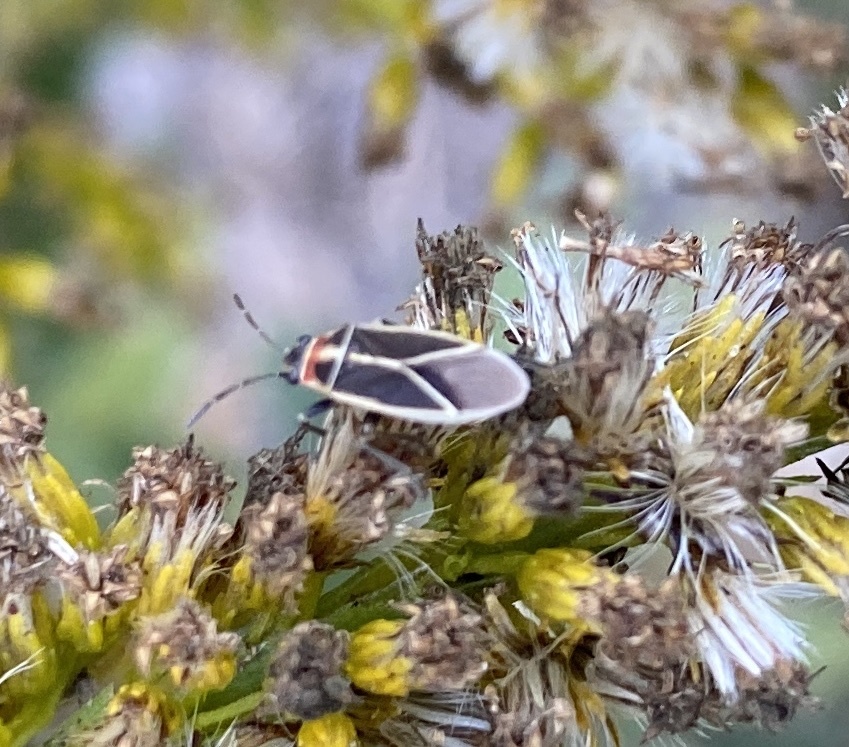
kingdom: Animalia
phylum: Arthropoda
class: Insecta
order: Hemiptera
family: Lygaeidae
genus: Ochrimnus
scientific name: Ochrimnus mimulus
